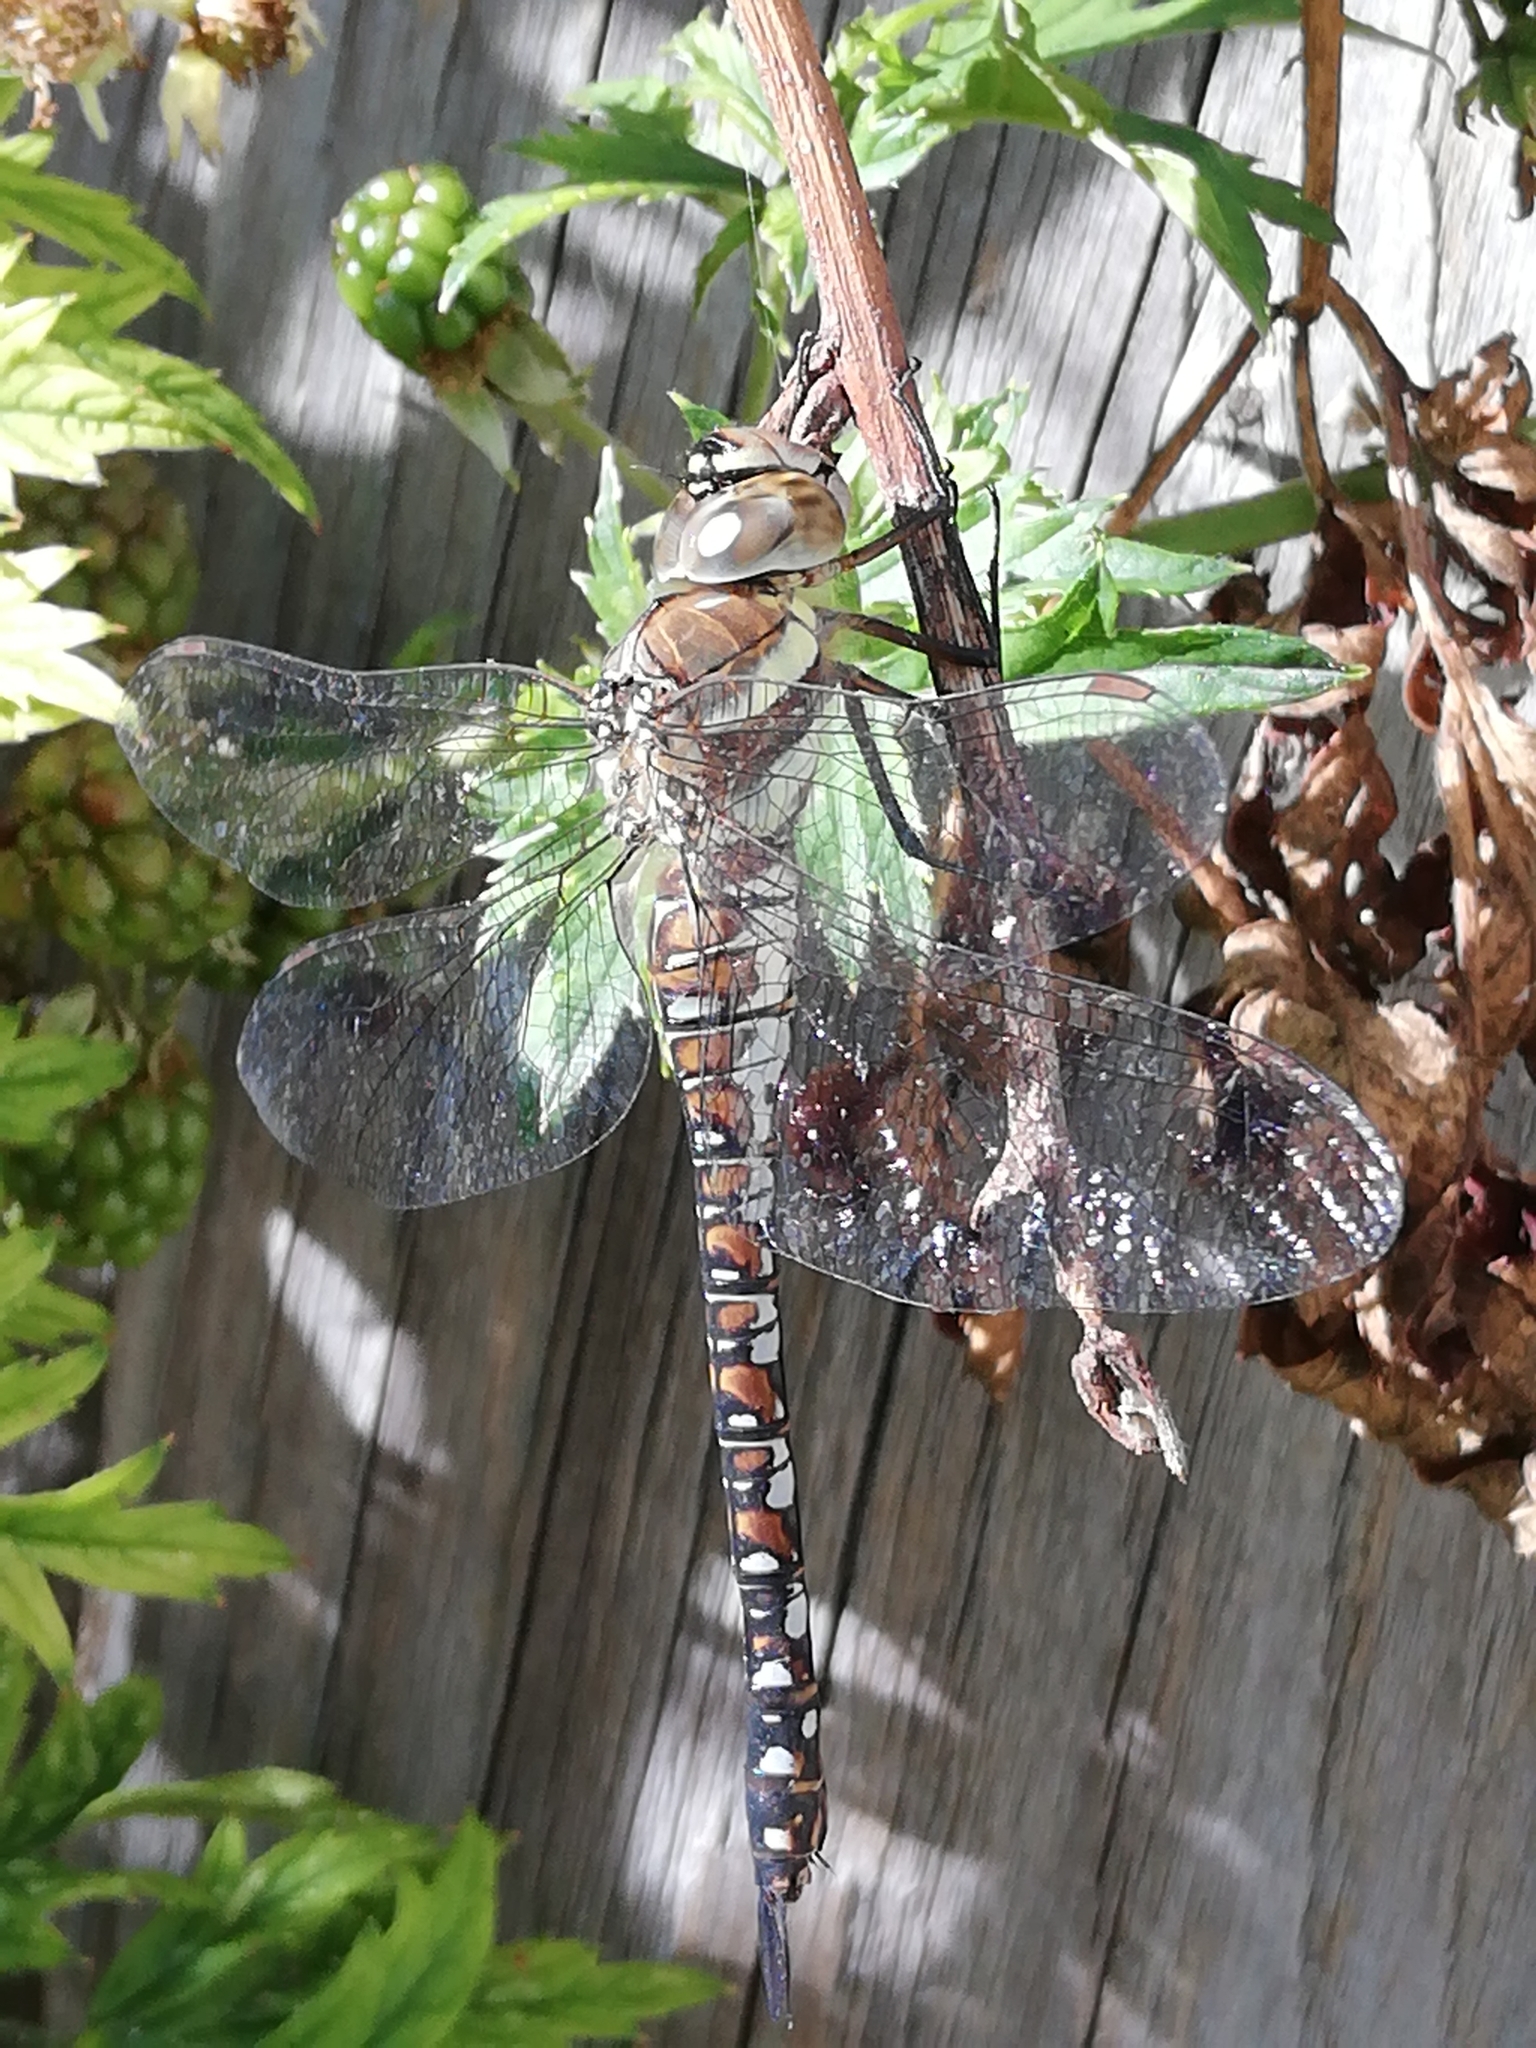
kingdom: Animalia
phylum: Arthropoda
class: Insecta
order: Odonata
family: Aeshnidae
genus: Aeshna
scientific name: Aeshna mixta
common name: Migrant hawker
